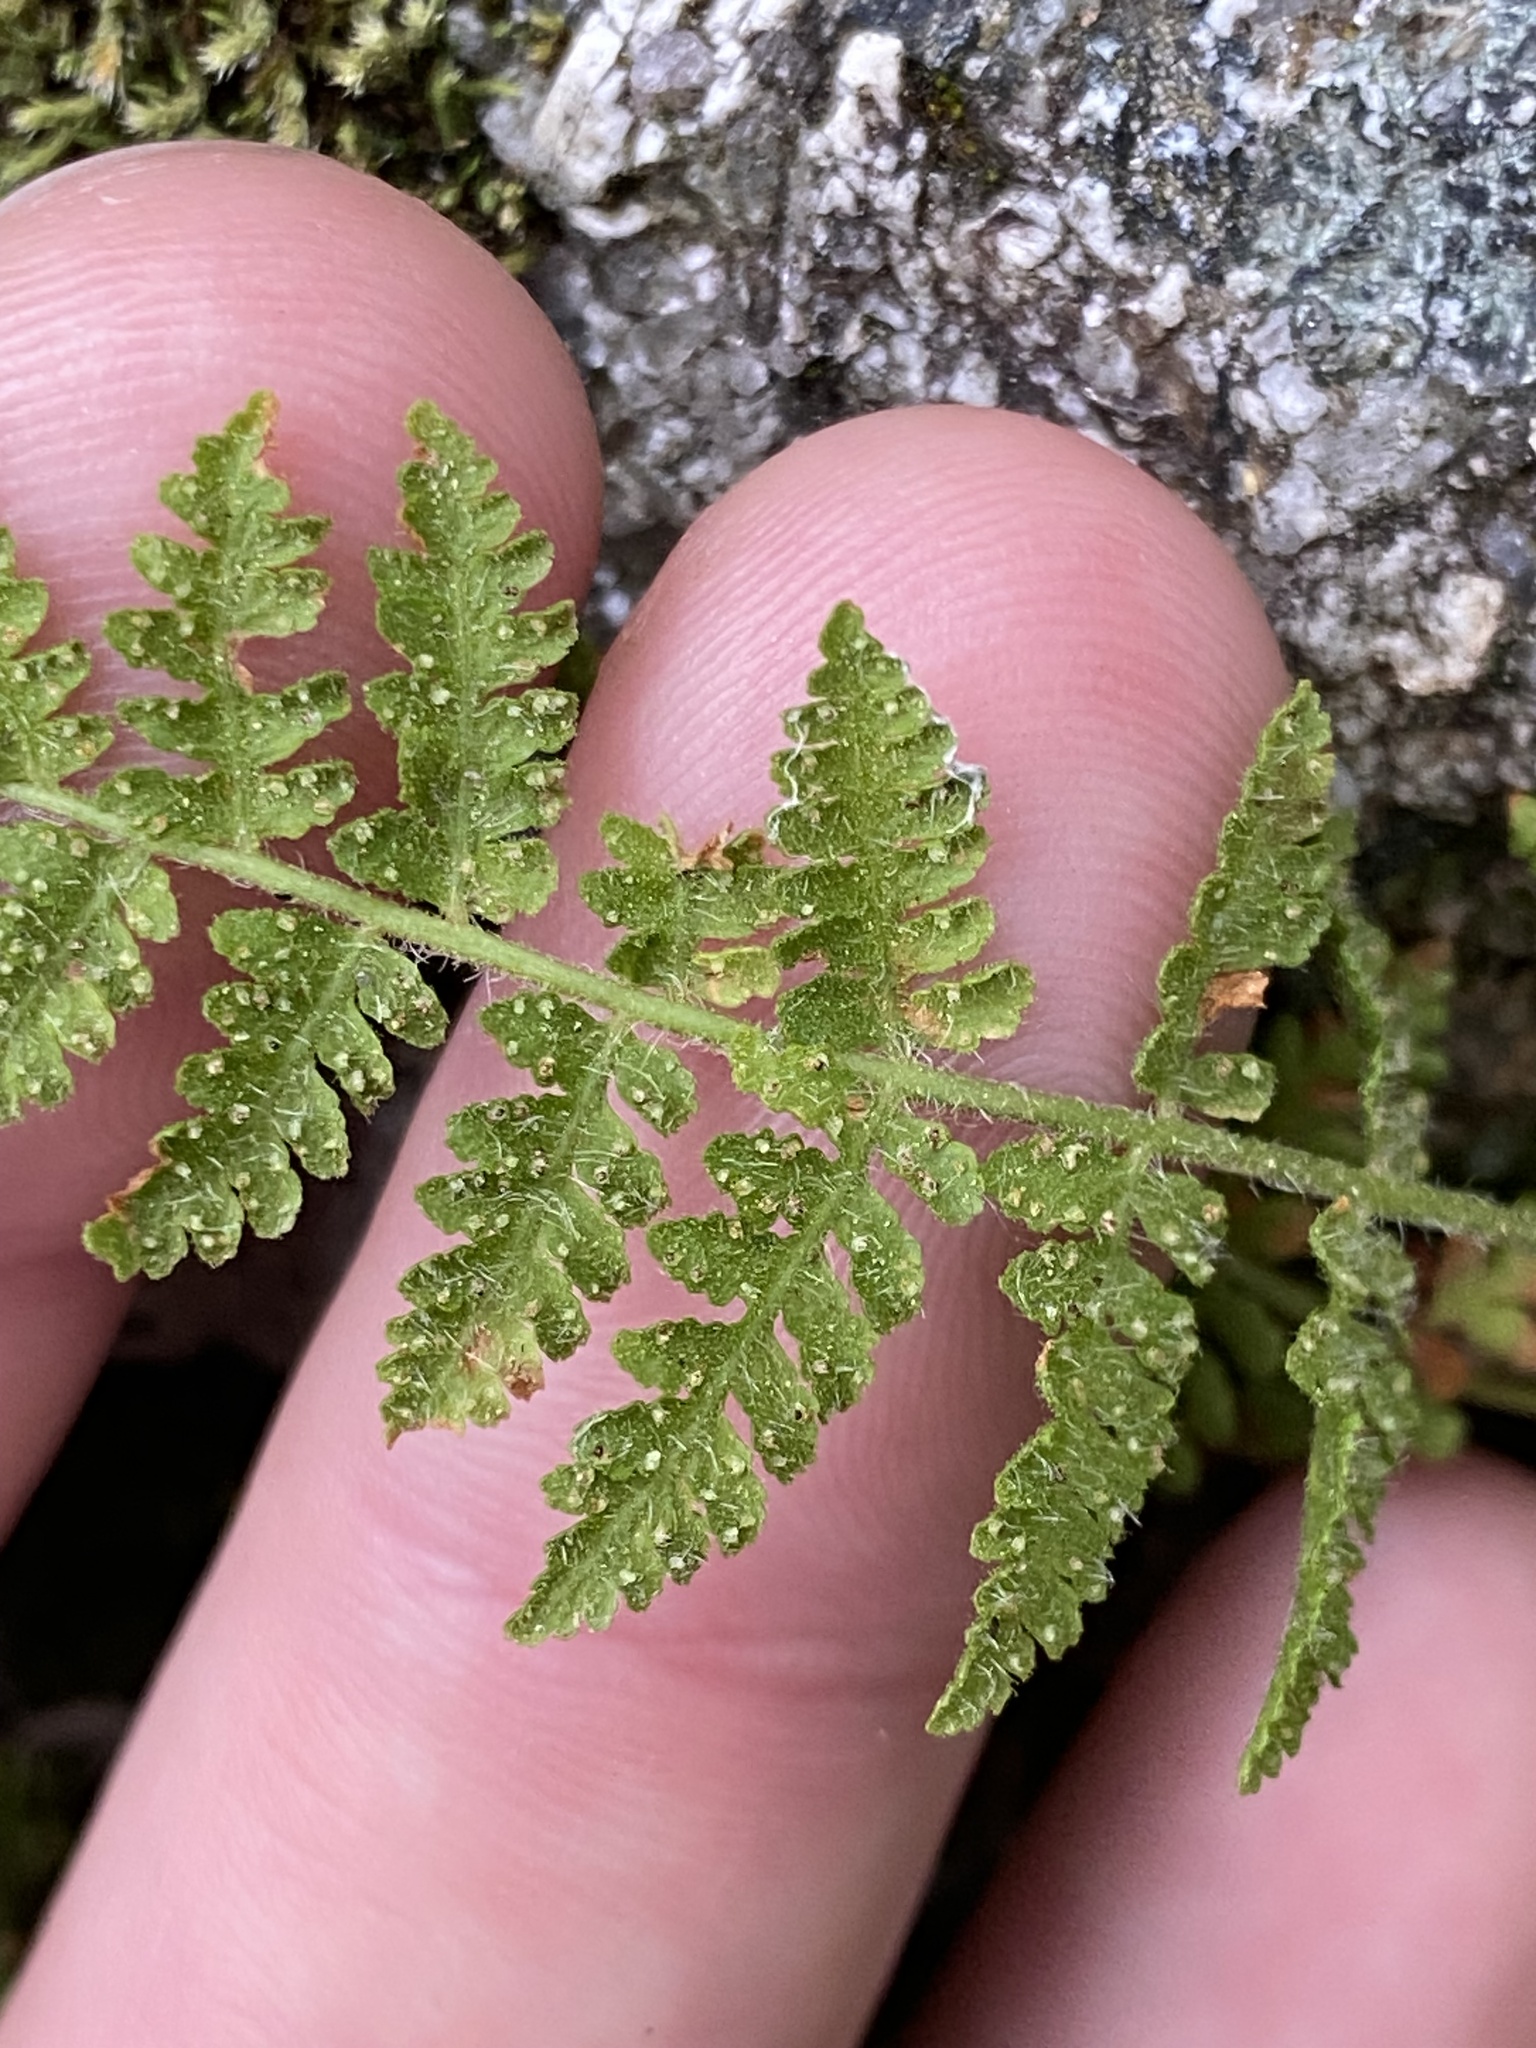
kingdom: Plantae
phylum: Tracheophyta
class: Polypodiopsida
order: Polypodiales
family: Woodsiaceae
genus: Physematium
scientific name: Physematium scopulinum
